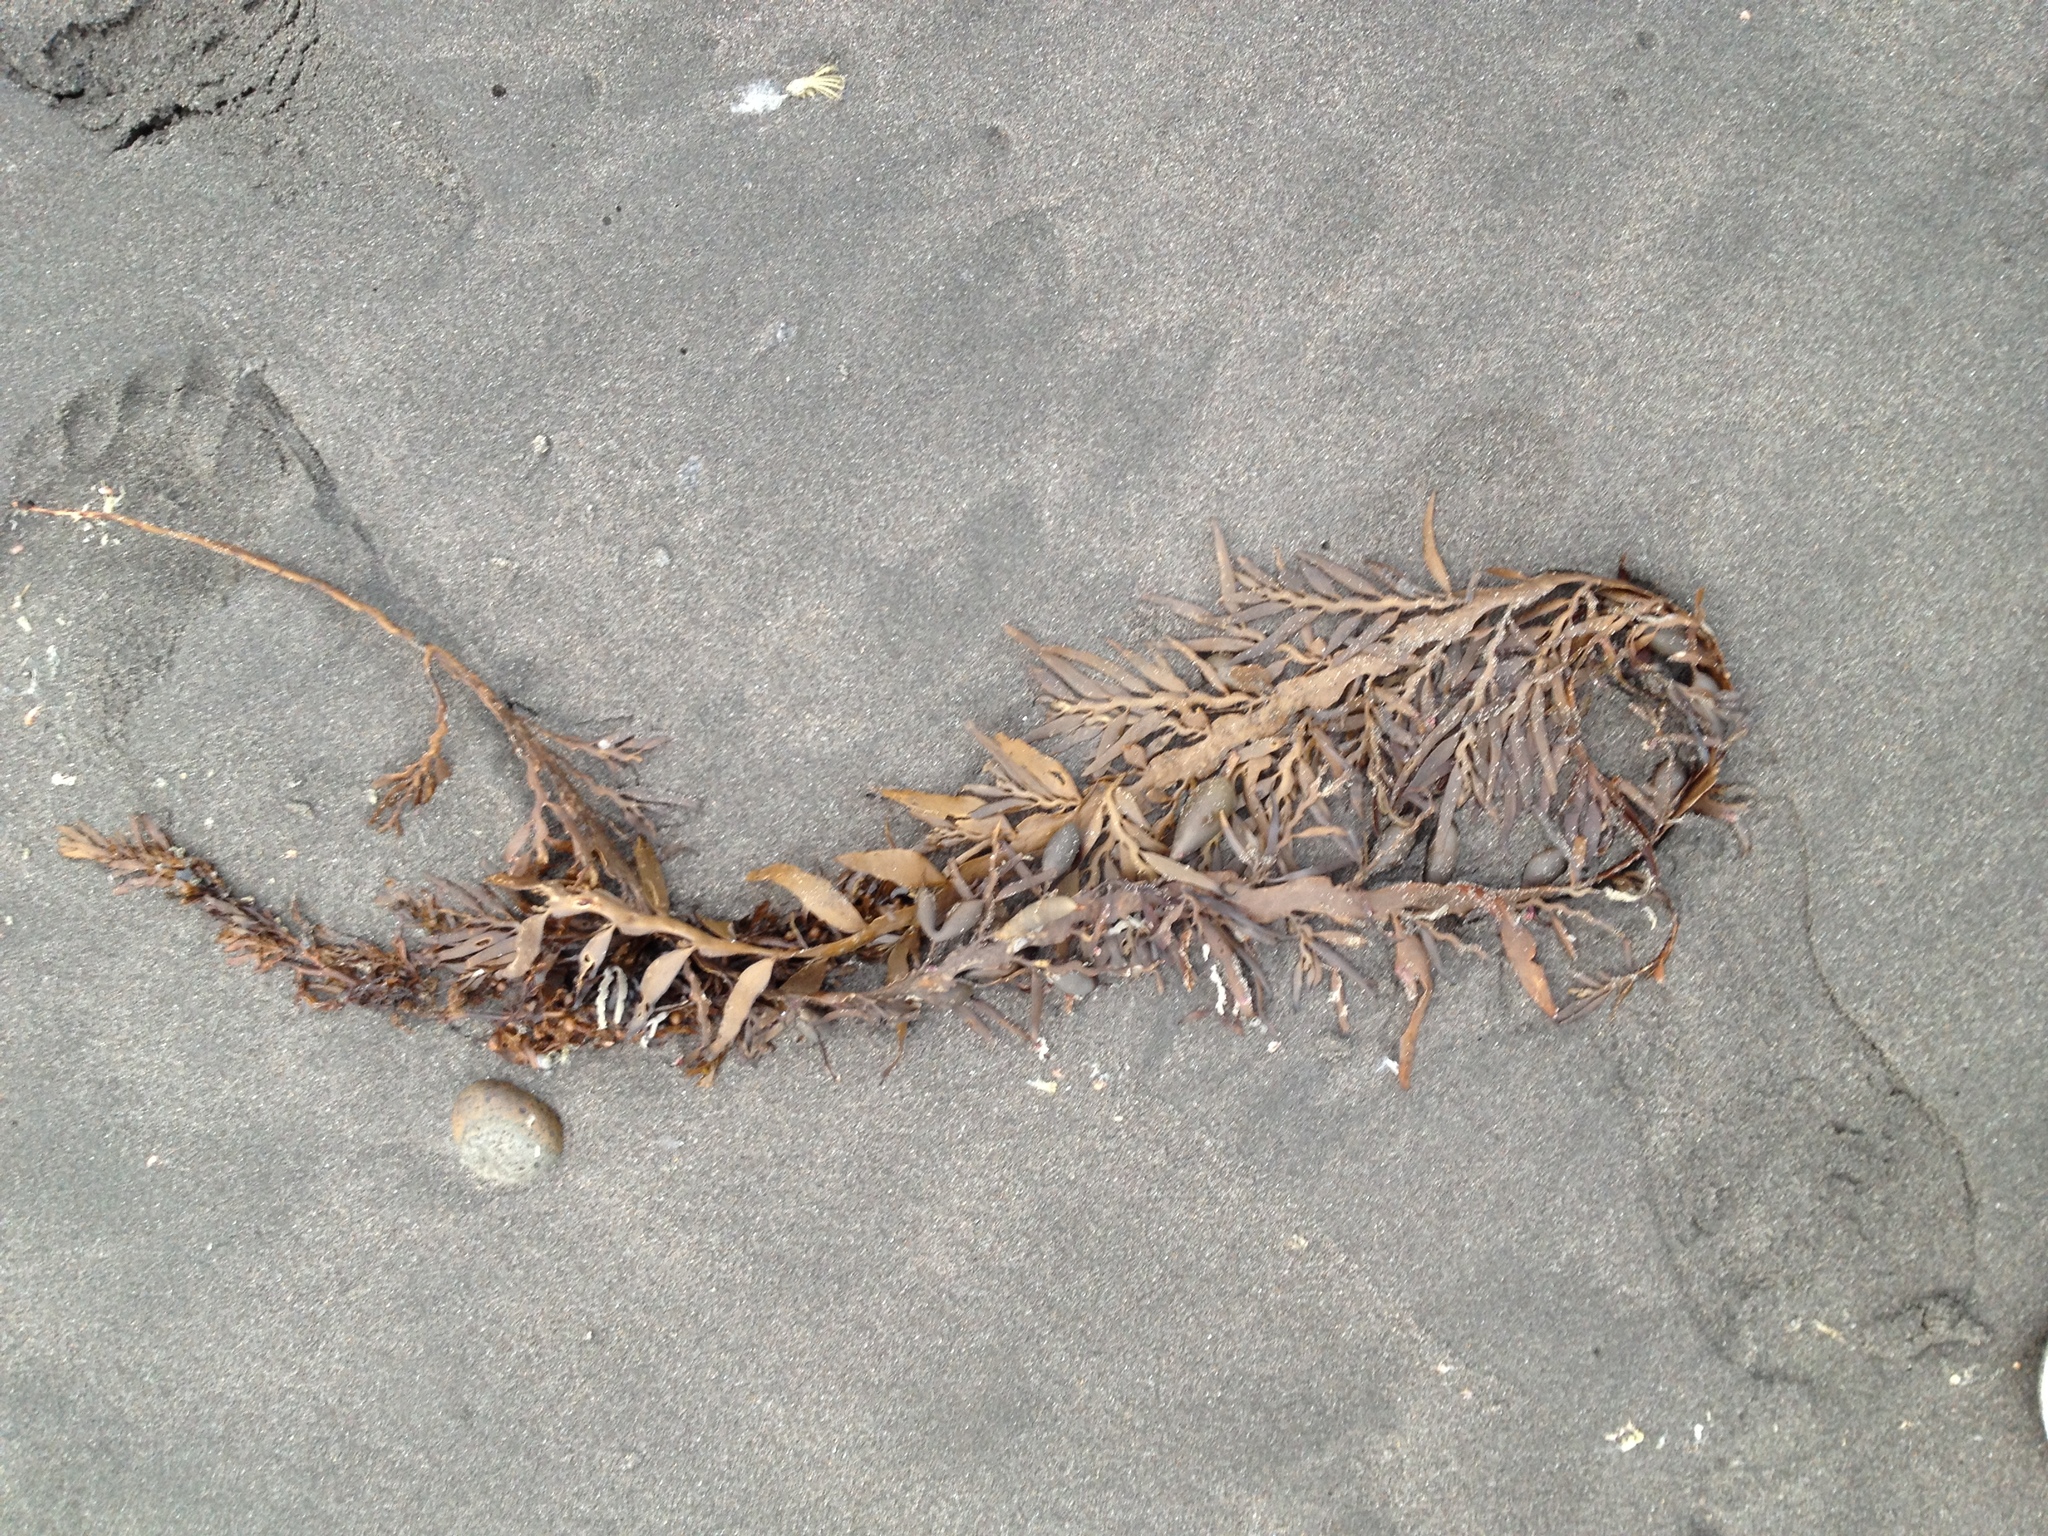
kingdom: Chromista
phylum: Ochrophyta
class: Phaeophyceae
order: Fucales
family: Sargassaceae
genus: Carpophyllum
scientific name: Carpophyllum maschalocarpum
